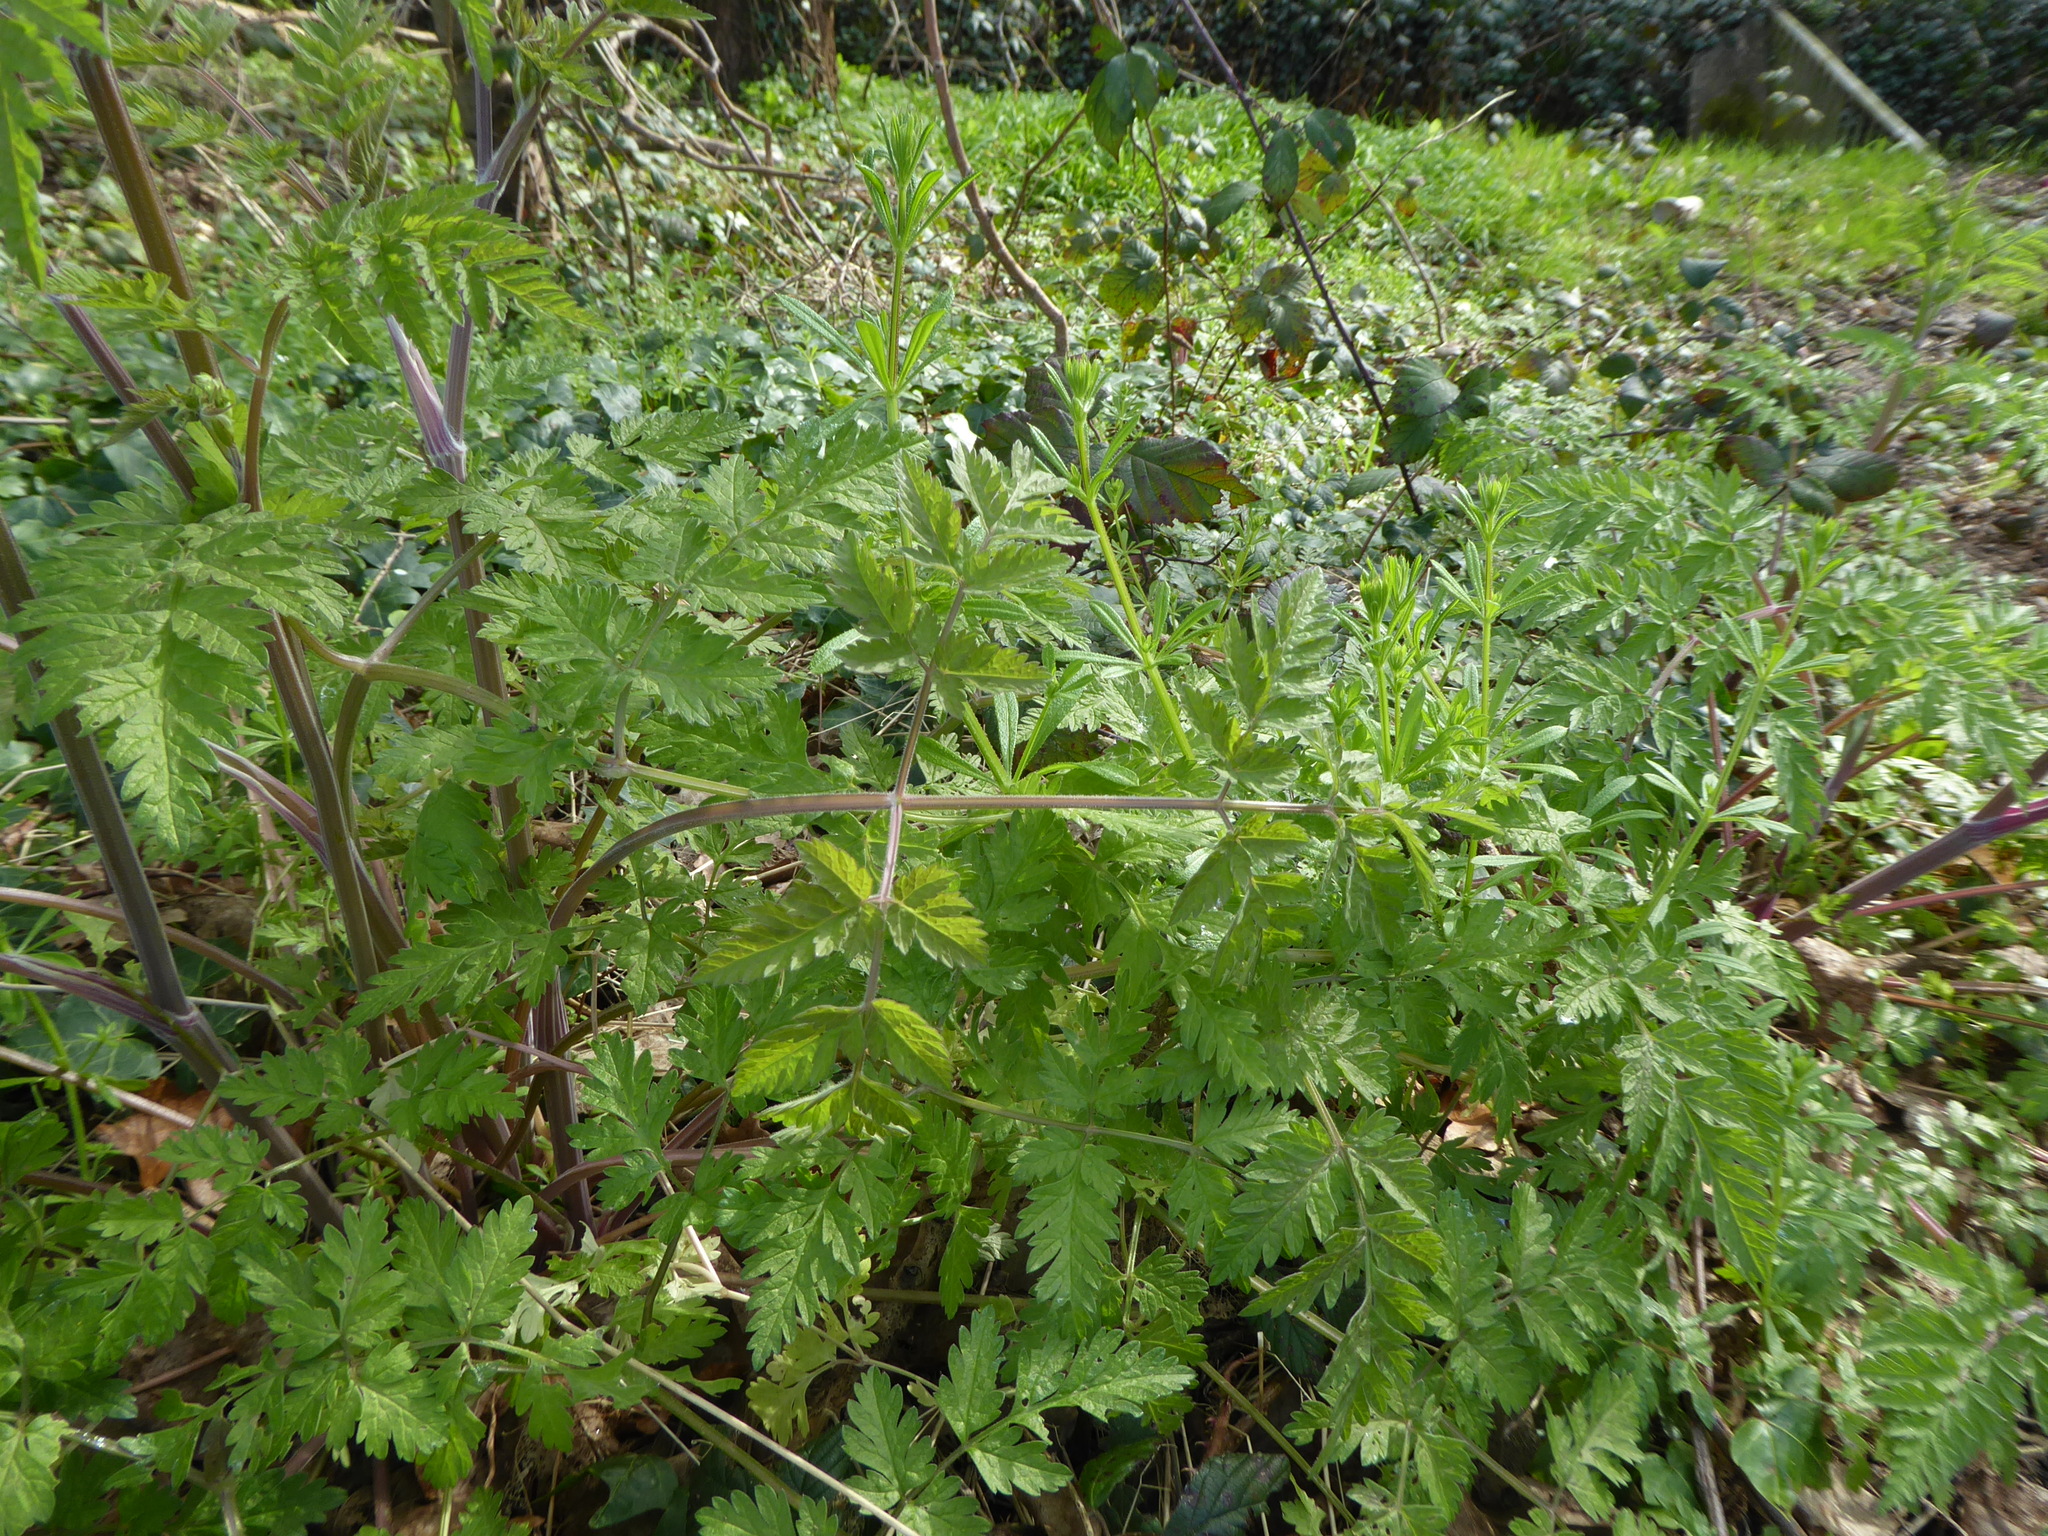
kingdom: Plantae
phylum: Tracheophyta
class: Magnoliopsida
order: Apiales
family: Apiaceae
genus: Anthriscus
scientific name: Anthriscus sylvestris
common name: Cow parsley
